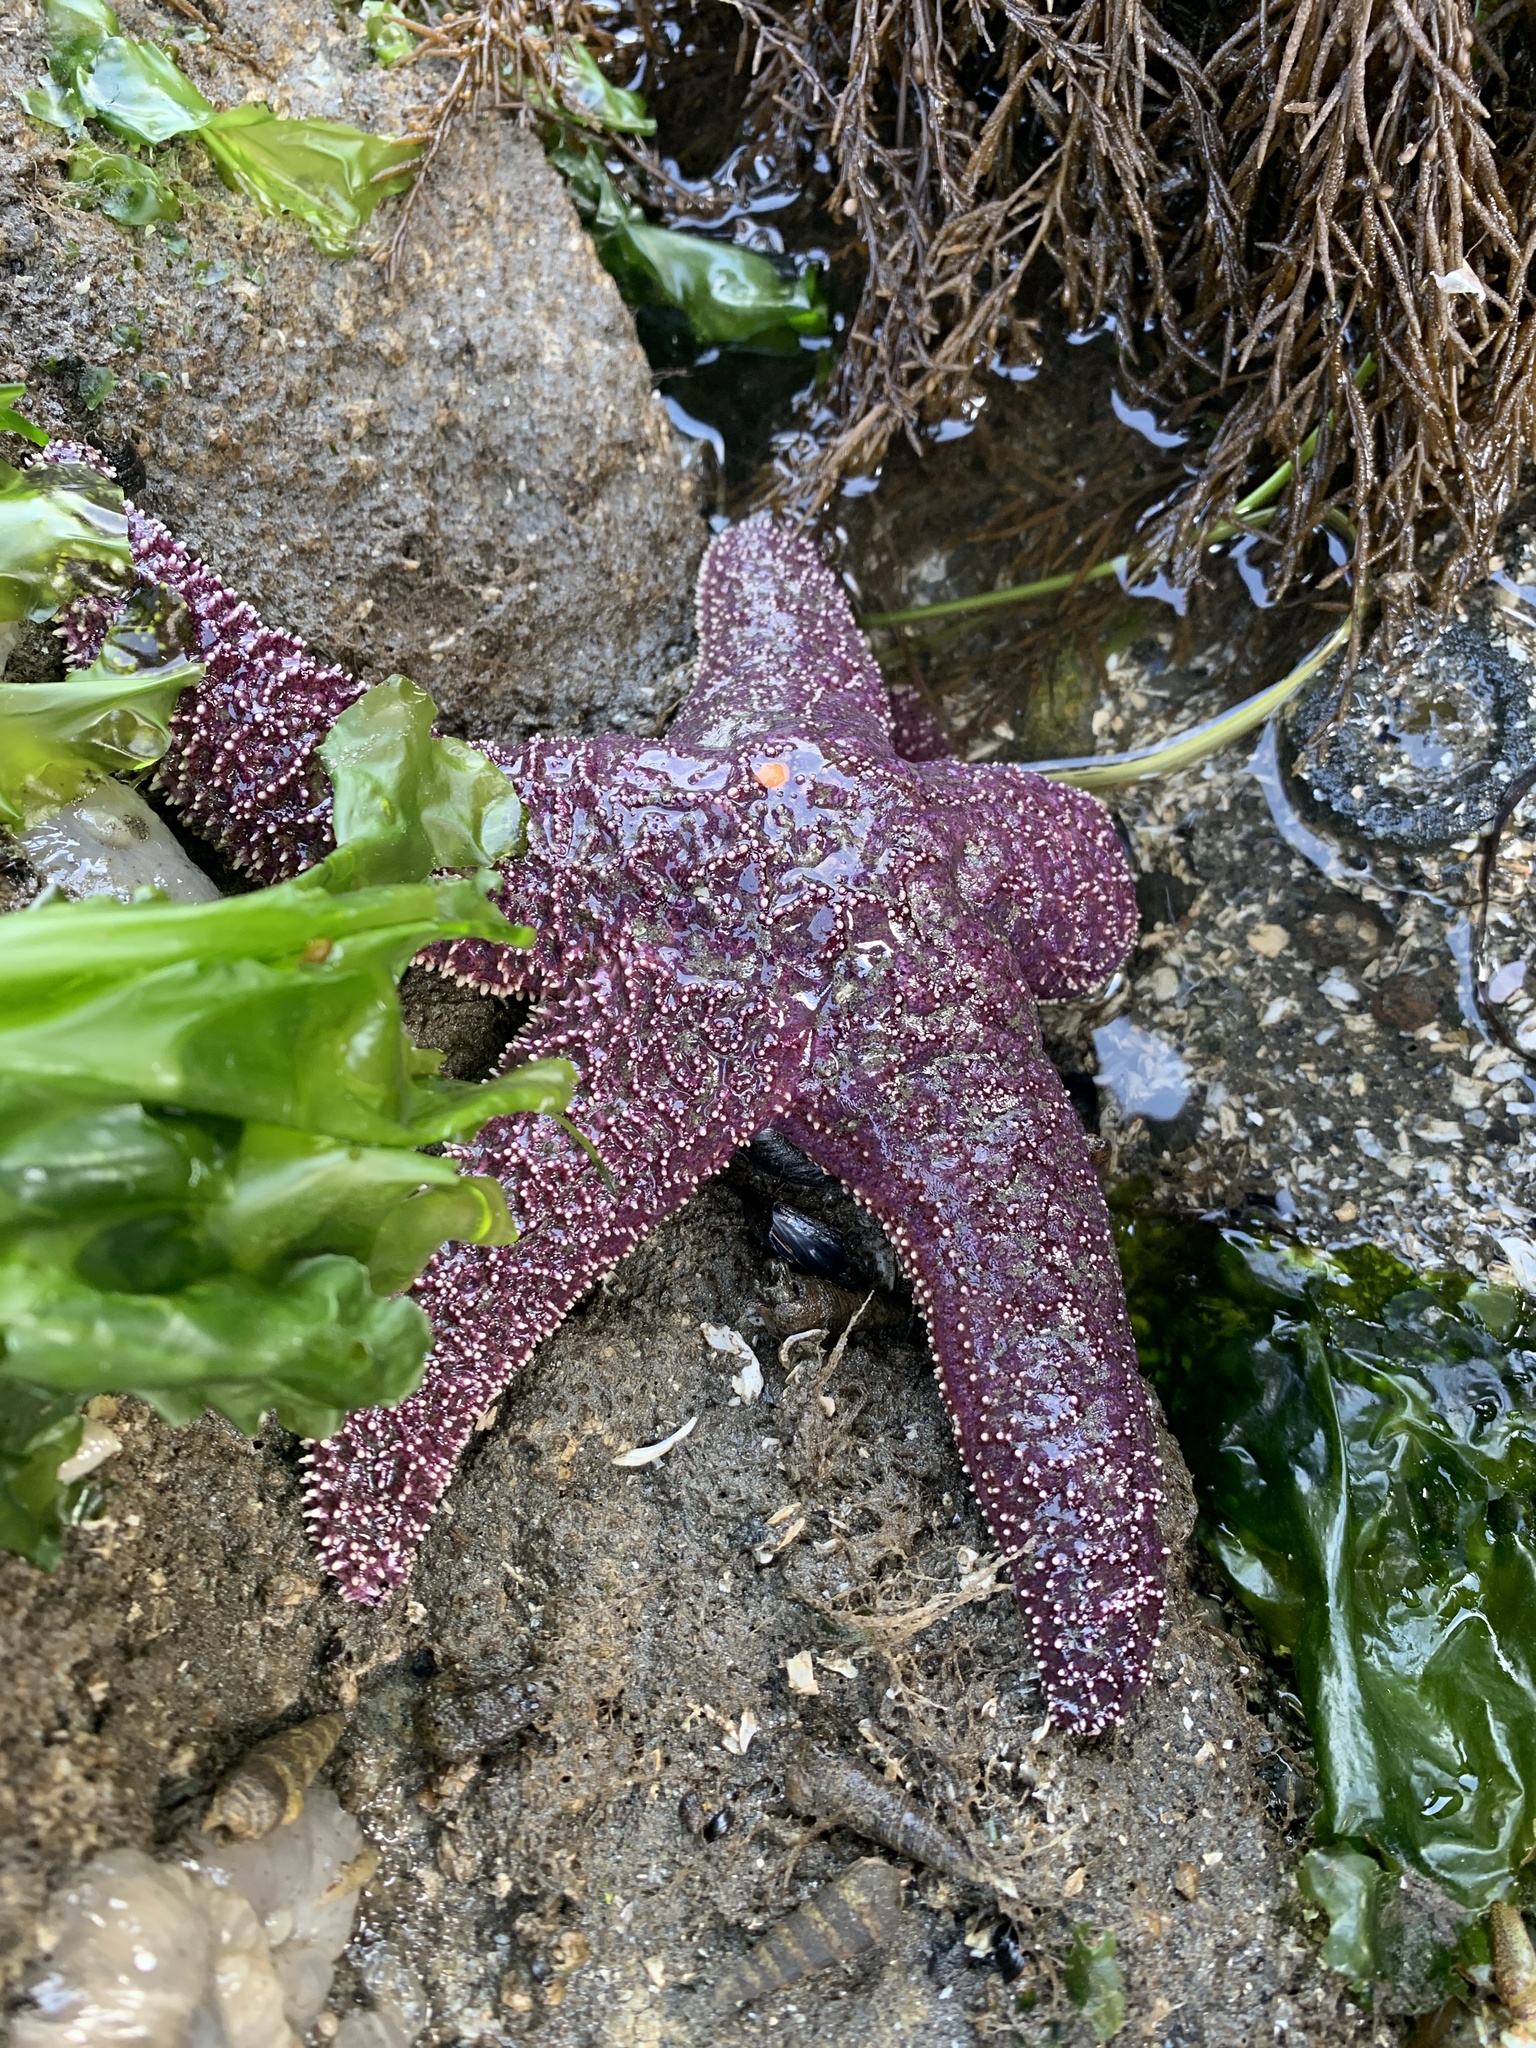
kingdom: Animalia
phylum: Echinodermata
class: Asteroidea
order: Forcipulatida
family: Asteriidae
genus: Pisaster
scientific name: Pisaster ochraceus
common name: Ochre stars
